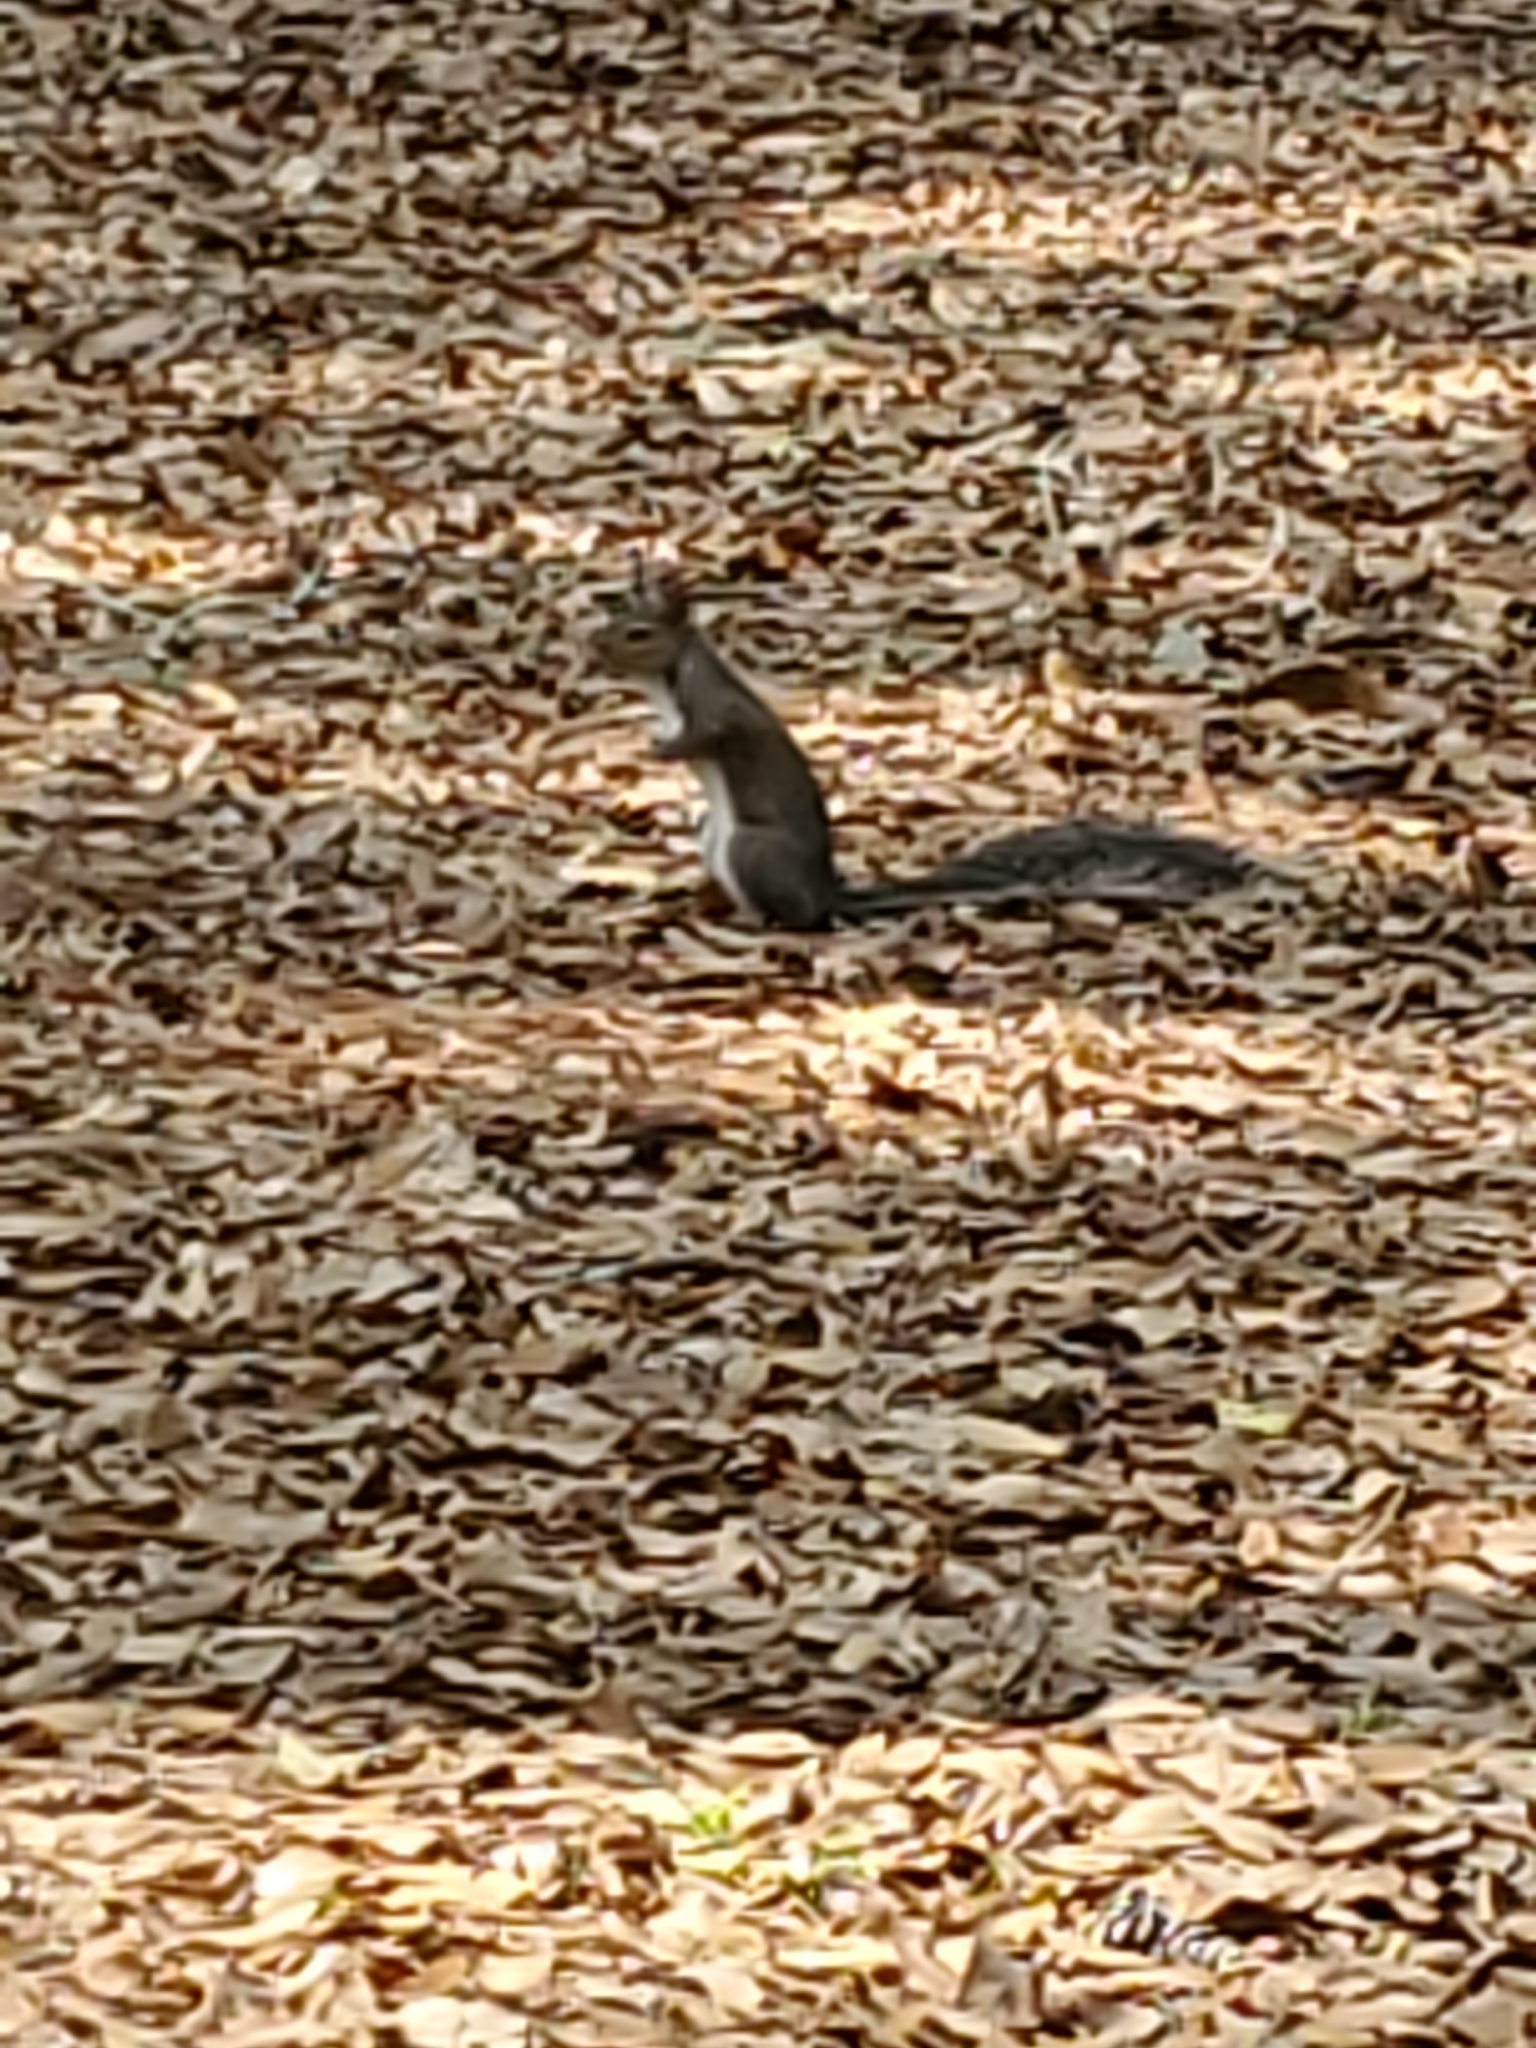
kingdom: Animalia
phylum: Chordata
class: Mammalia
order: Rodentia
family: Sciuridae
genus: Sciurus
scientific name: Sciurus carolinensis
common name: Eastern gray squirrel
